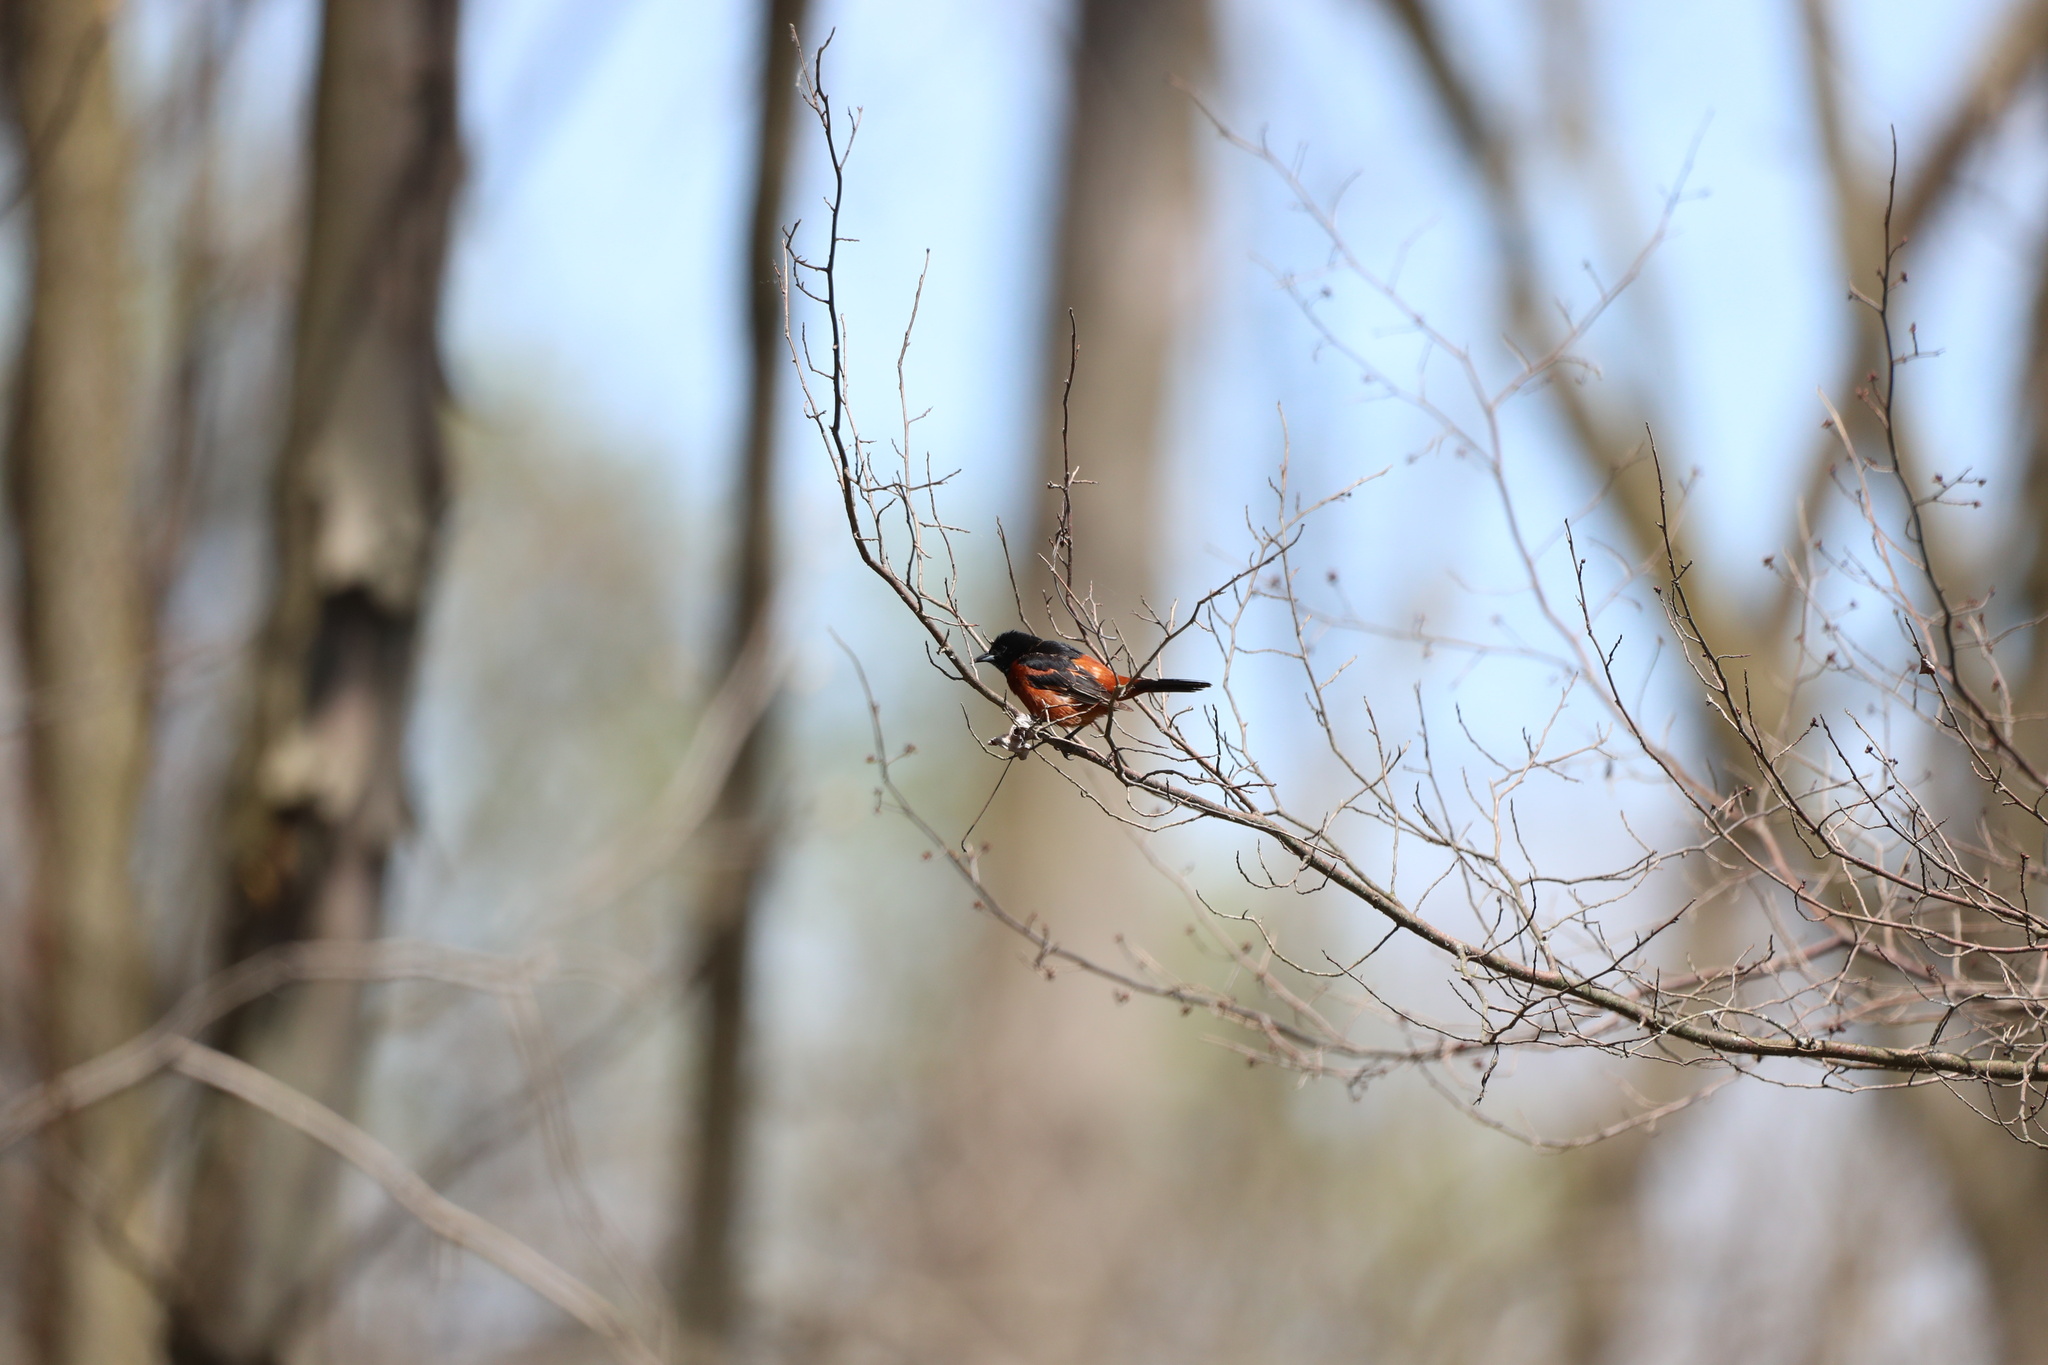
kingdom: Animalia
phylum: Chordata
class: Aves
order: Passeriformes
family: Icteridae
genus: Icterus
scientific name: Icterus spurius
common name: Orchard oriole
